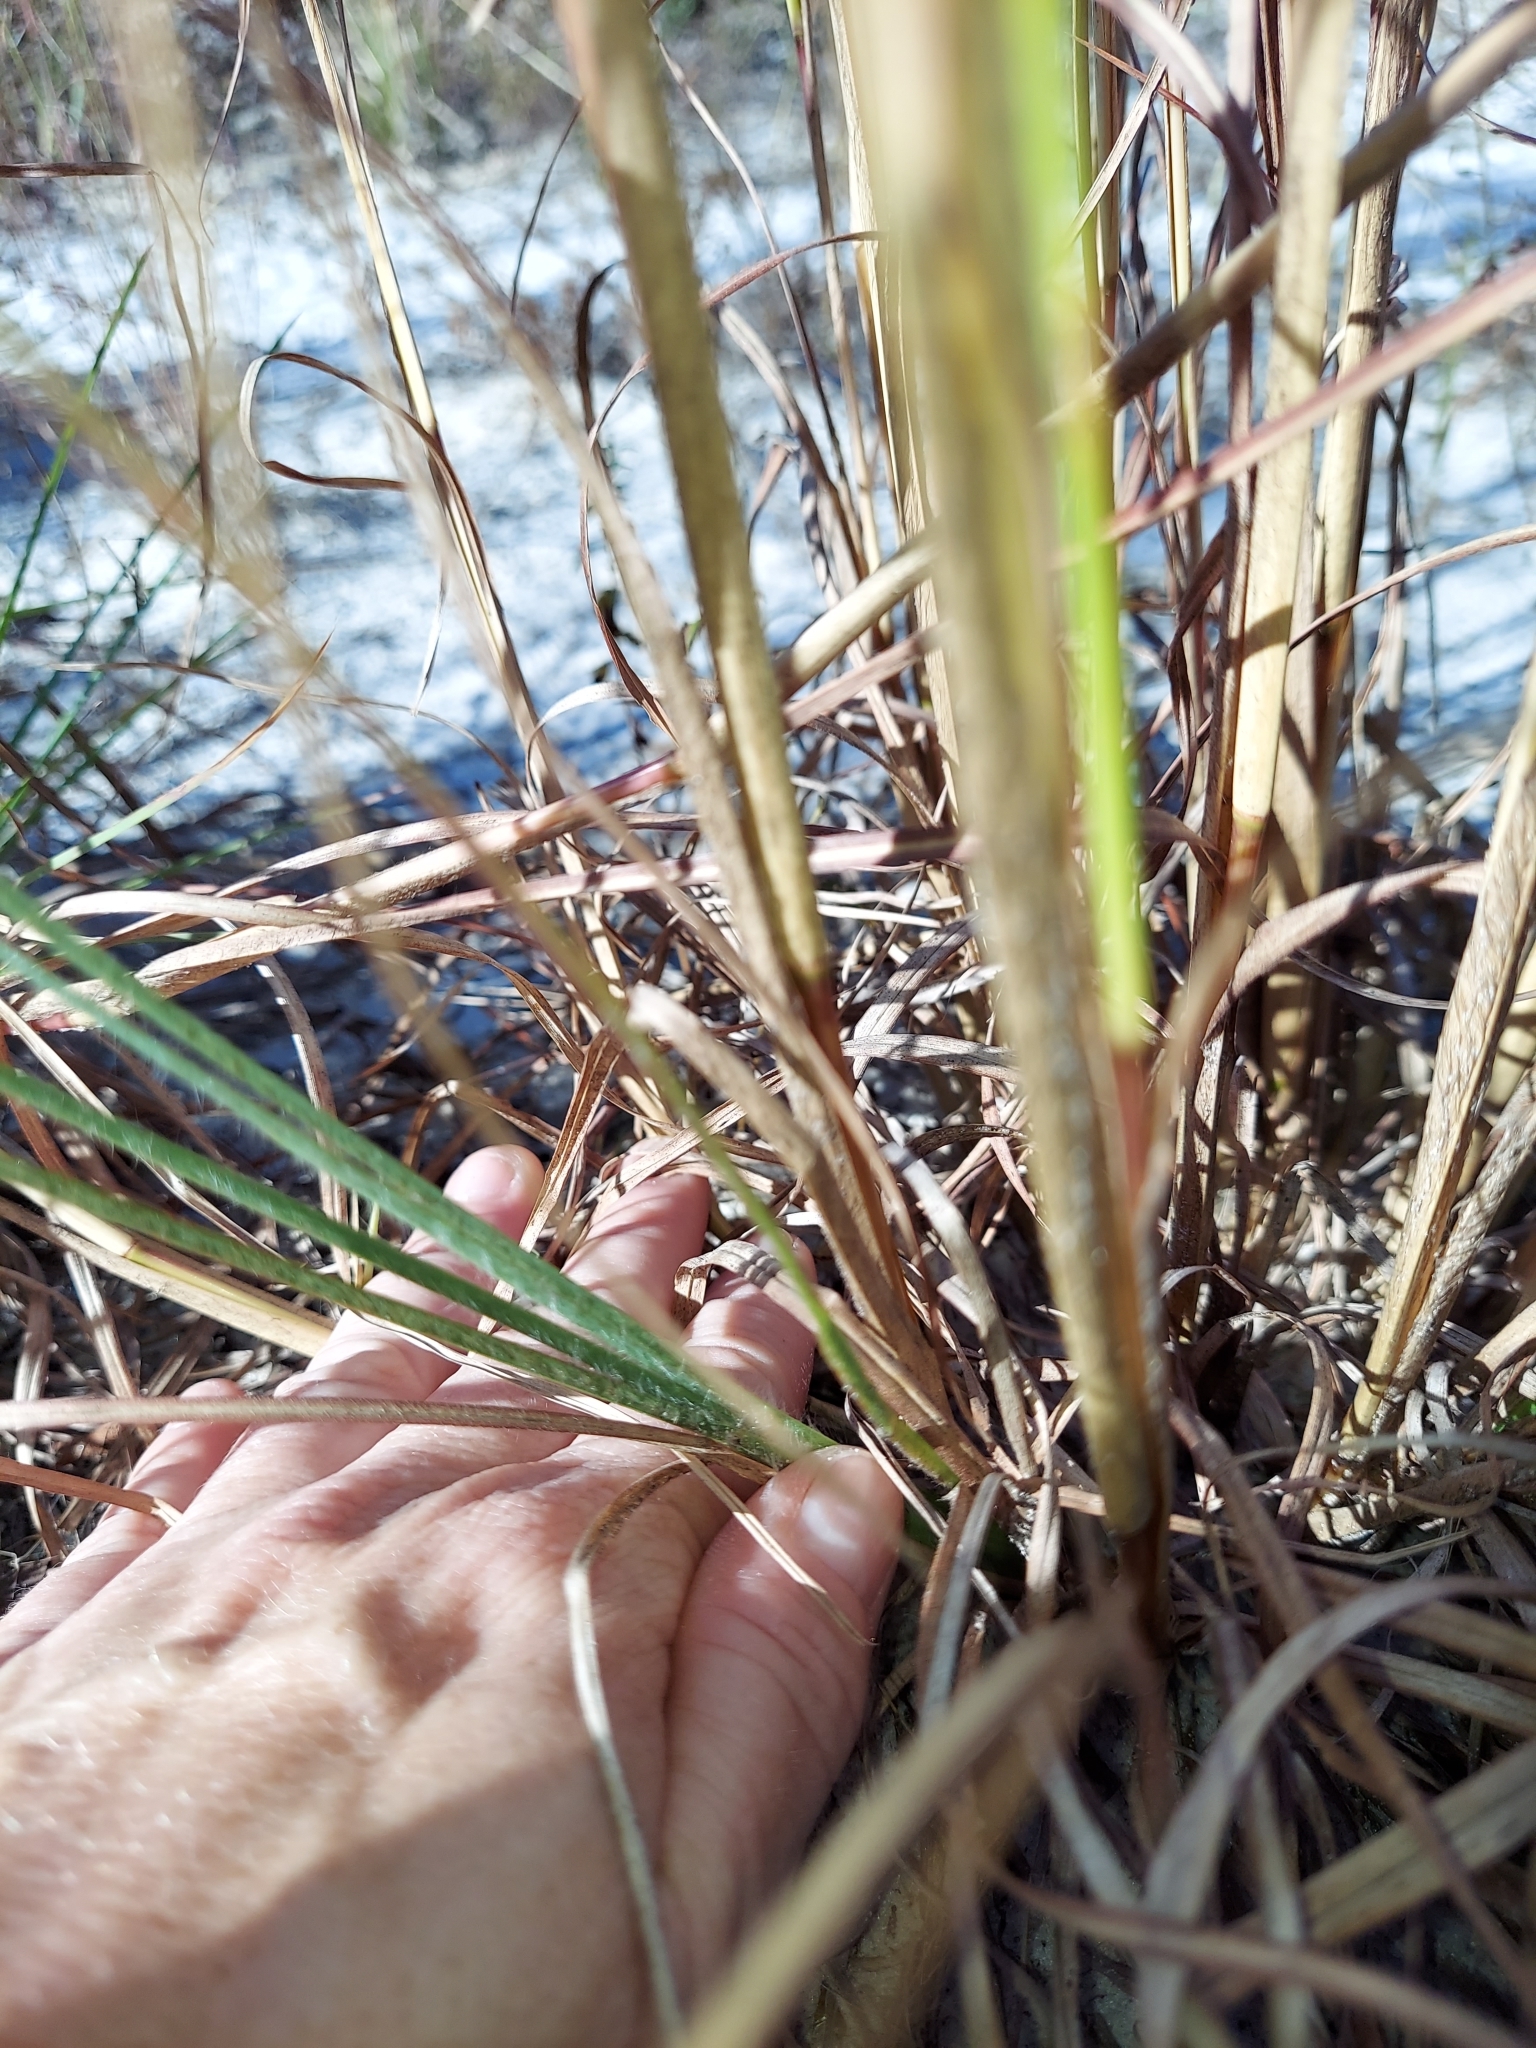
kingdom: Plantae
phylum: Tracheophyta
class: Liliopsida
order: Poales
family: Poaceae
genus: Andropogon
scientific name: Andropogon tracyi
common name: Tracy's bluestem
